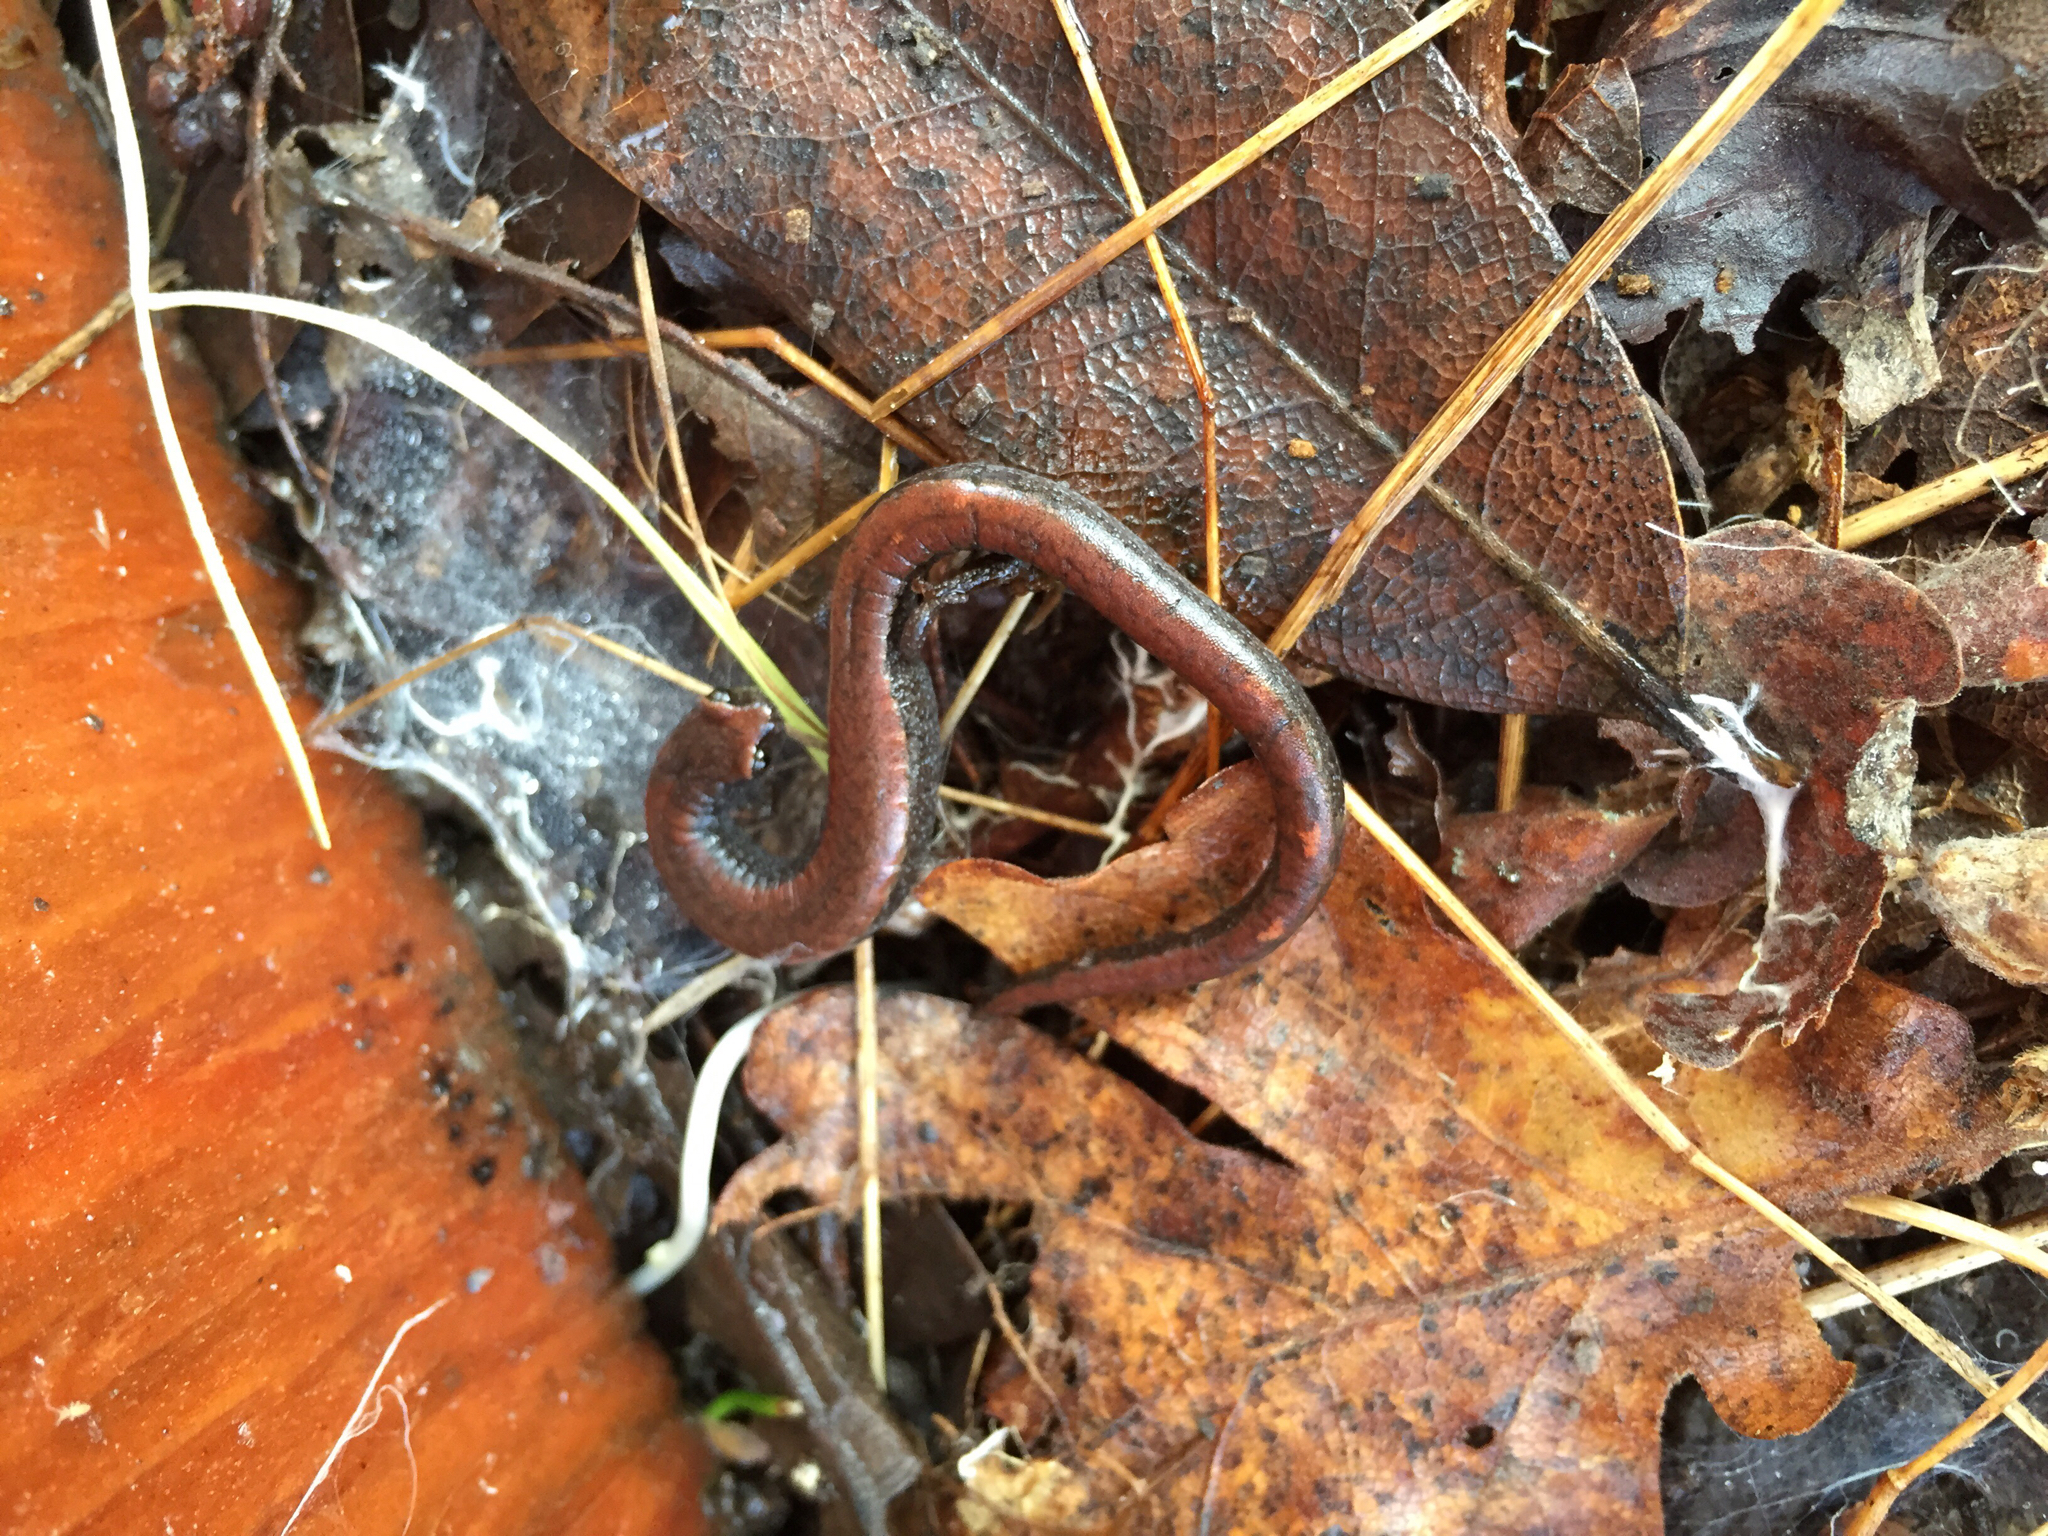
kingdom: Animalia
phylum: Chordata
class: Amphibia
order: Caudata
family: Plethodontidae
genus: Batrachoseps
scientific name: Batrachoseps attenuatus
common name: California slender salamander
